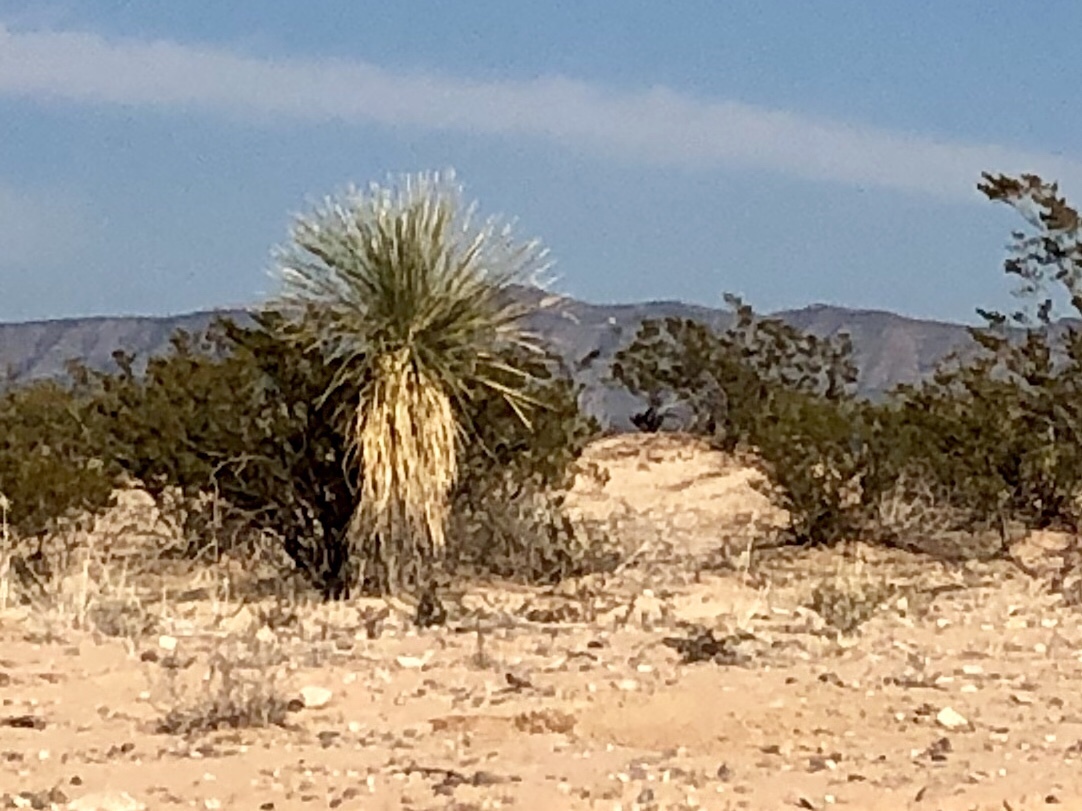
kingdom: Plantae
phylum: Tracheophyta
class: Liliopsida
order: Asparagales
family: Asparagaceae
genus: Yucca
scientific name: Yucca elata
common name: Palmella
